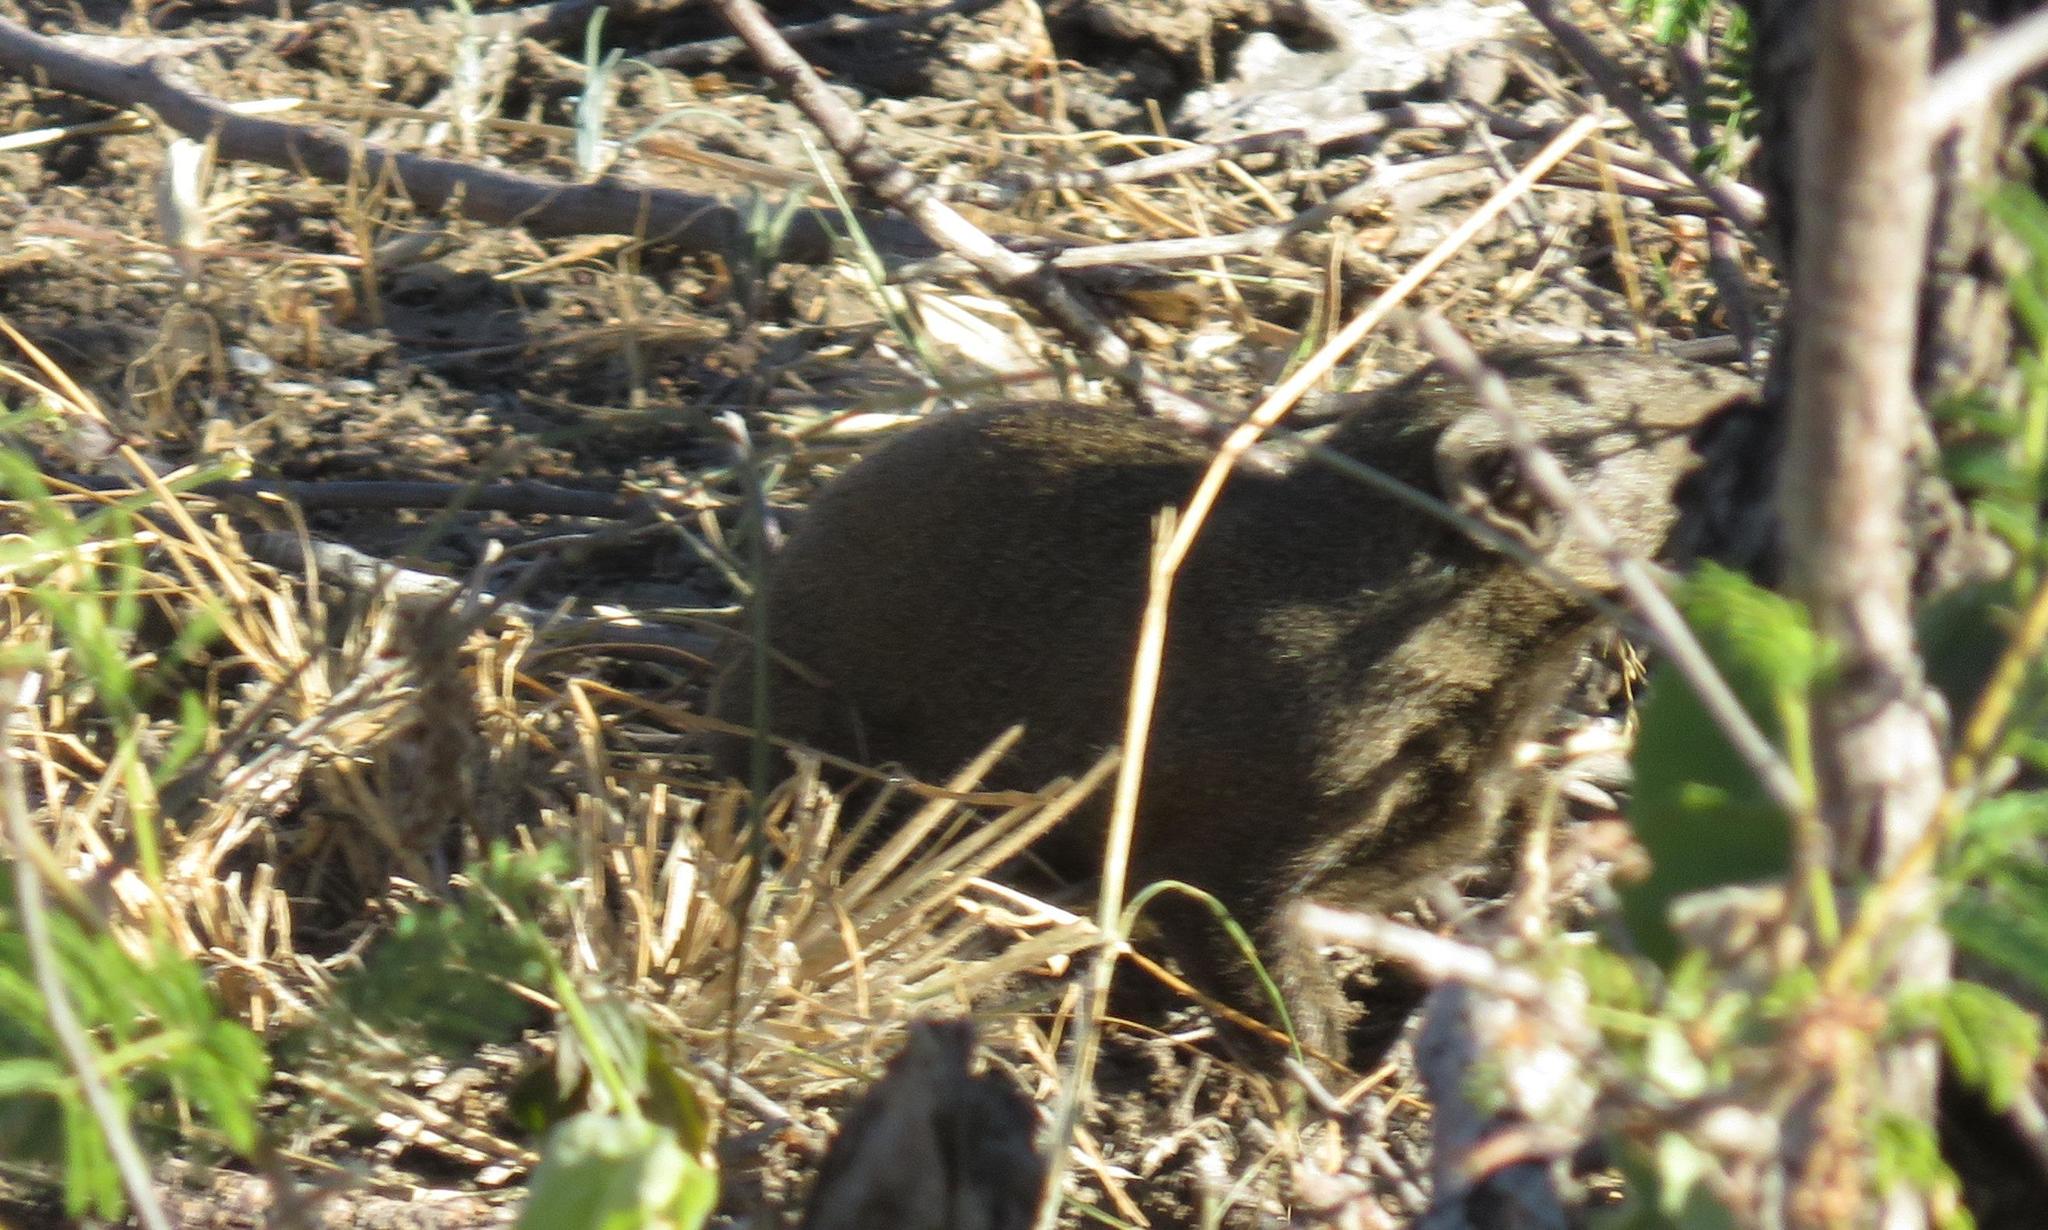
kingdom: Animalia
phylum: Chordata
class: Mammalia
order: Carnivora
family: Herpestidae
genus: Galerella
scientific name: Galerella sanguinea
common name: Slender mongoose
